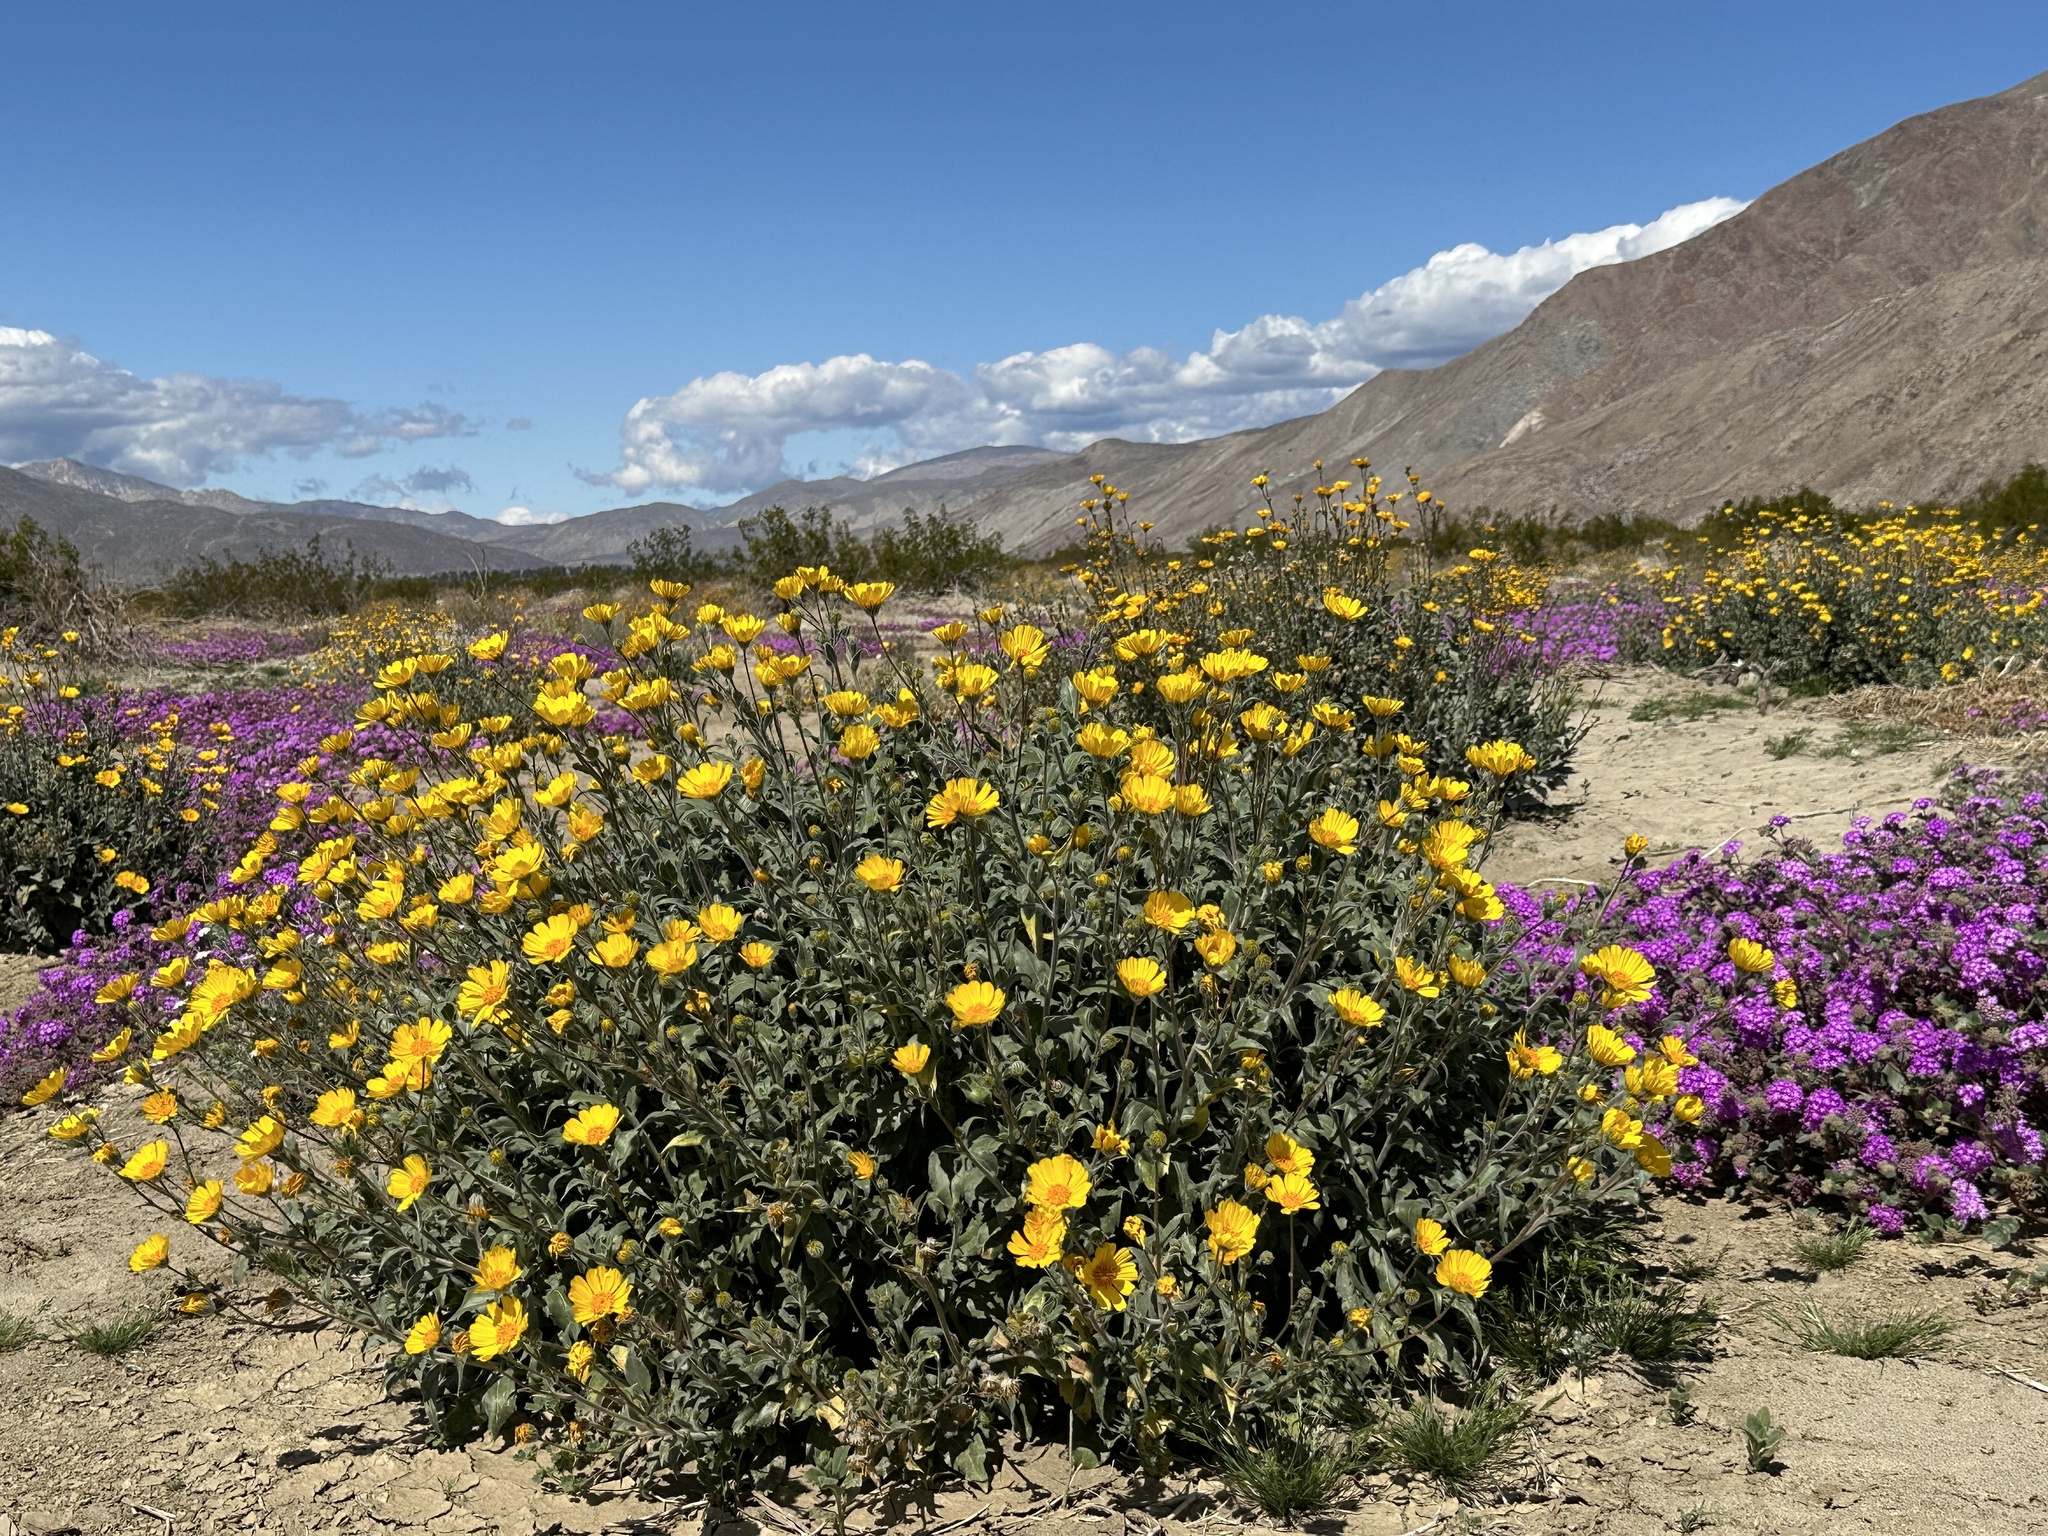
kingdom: Plantae
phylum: Tracheophyta
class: Magnoliopsida
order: Asterales
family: Asteraceae
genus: Geraea
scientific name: Geraea canescens
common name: Desert-gold
